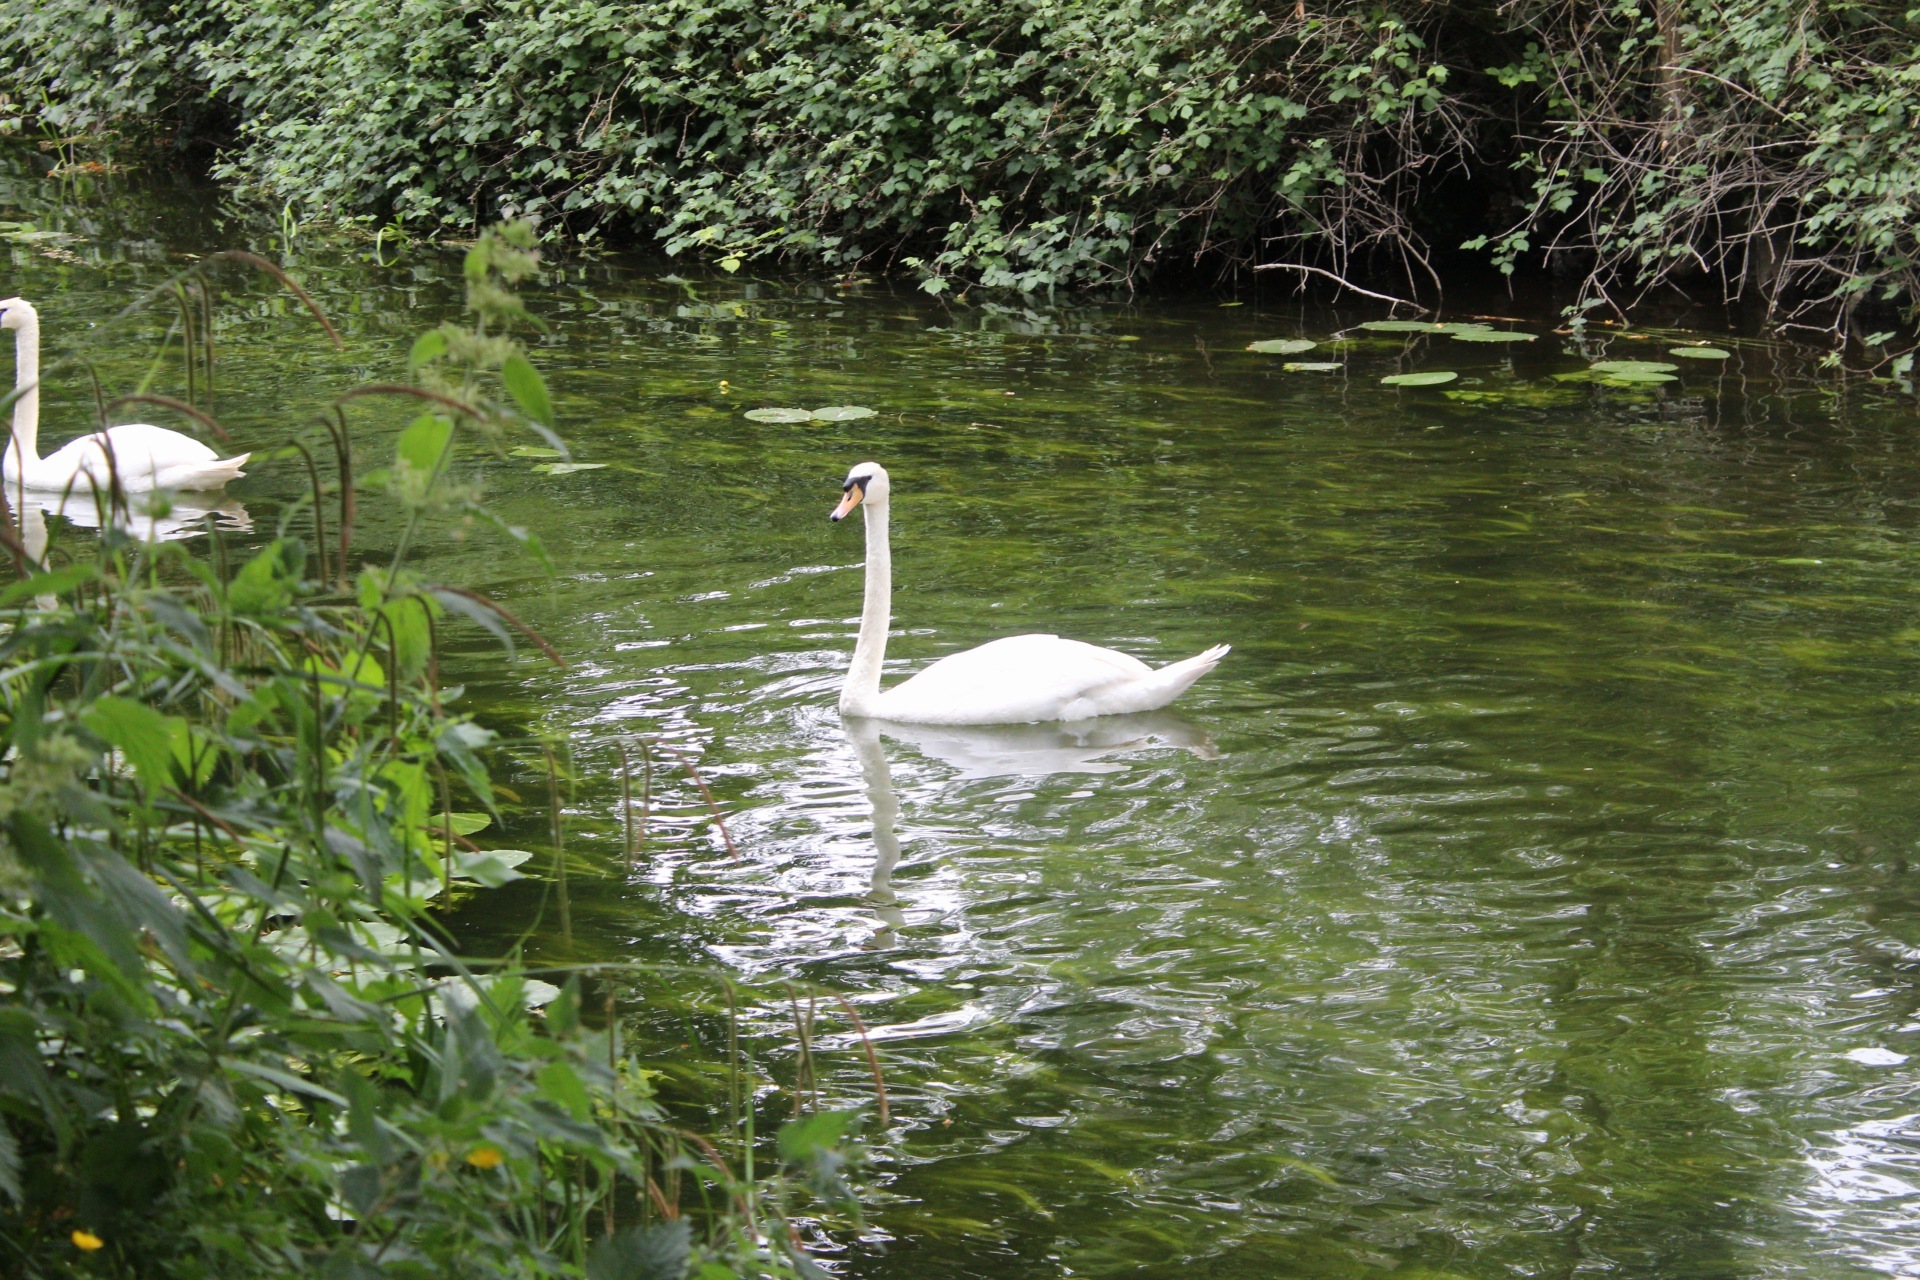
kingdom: Animalia
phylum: Chordata
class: Aves
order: Anseriformes
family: Anatidae
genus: Cygnus
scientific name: Cygnus olor
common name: Mute swan
